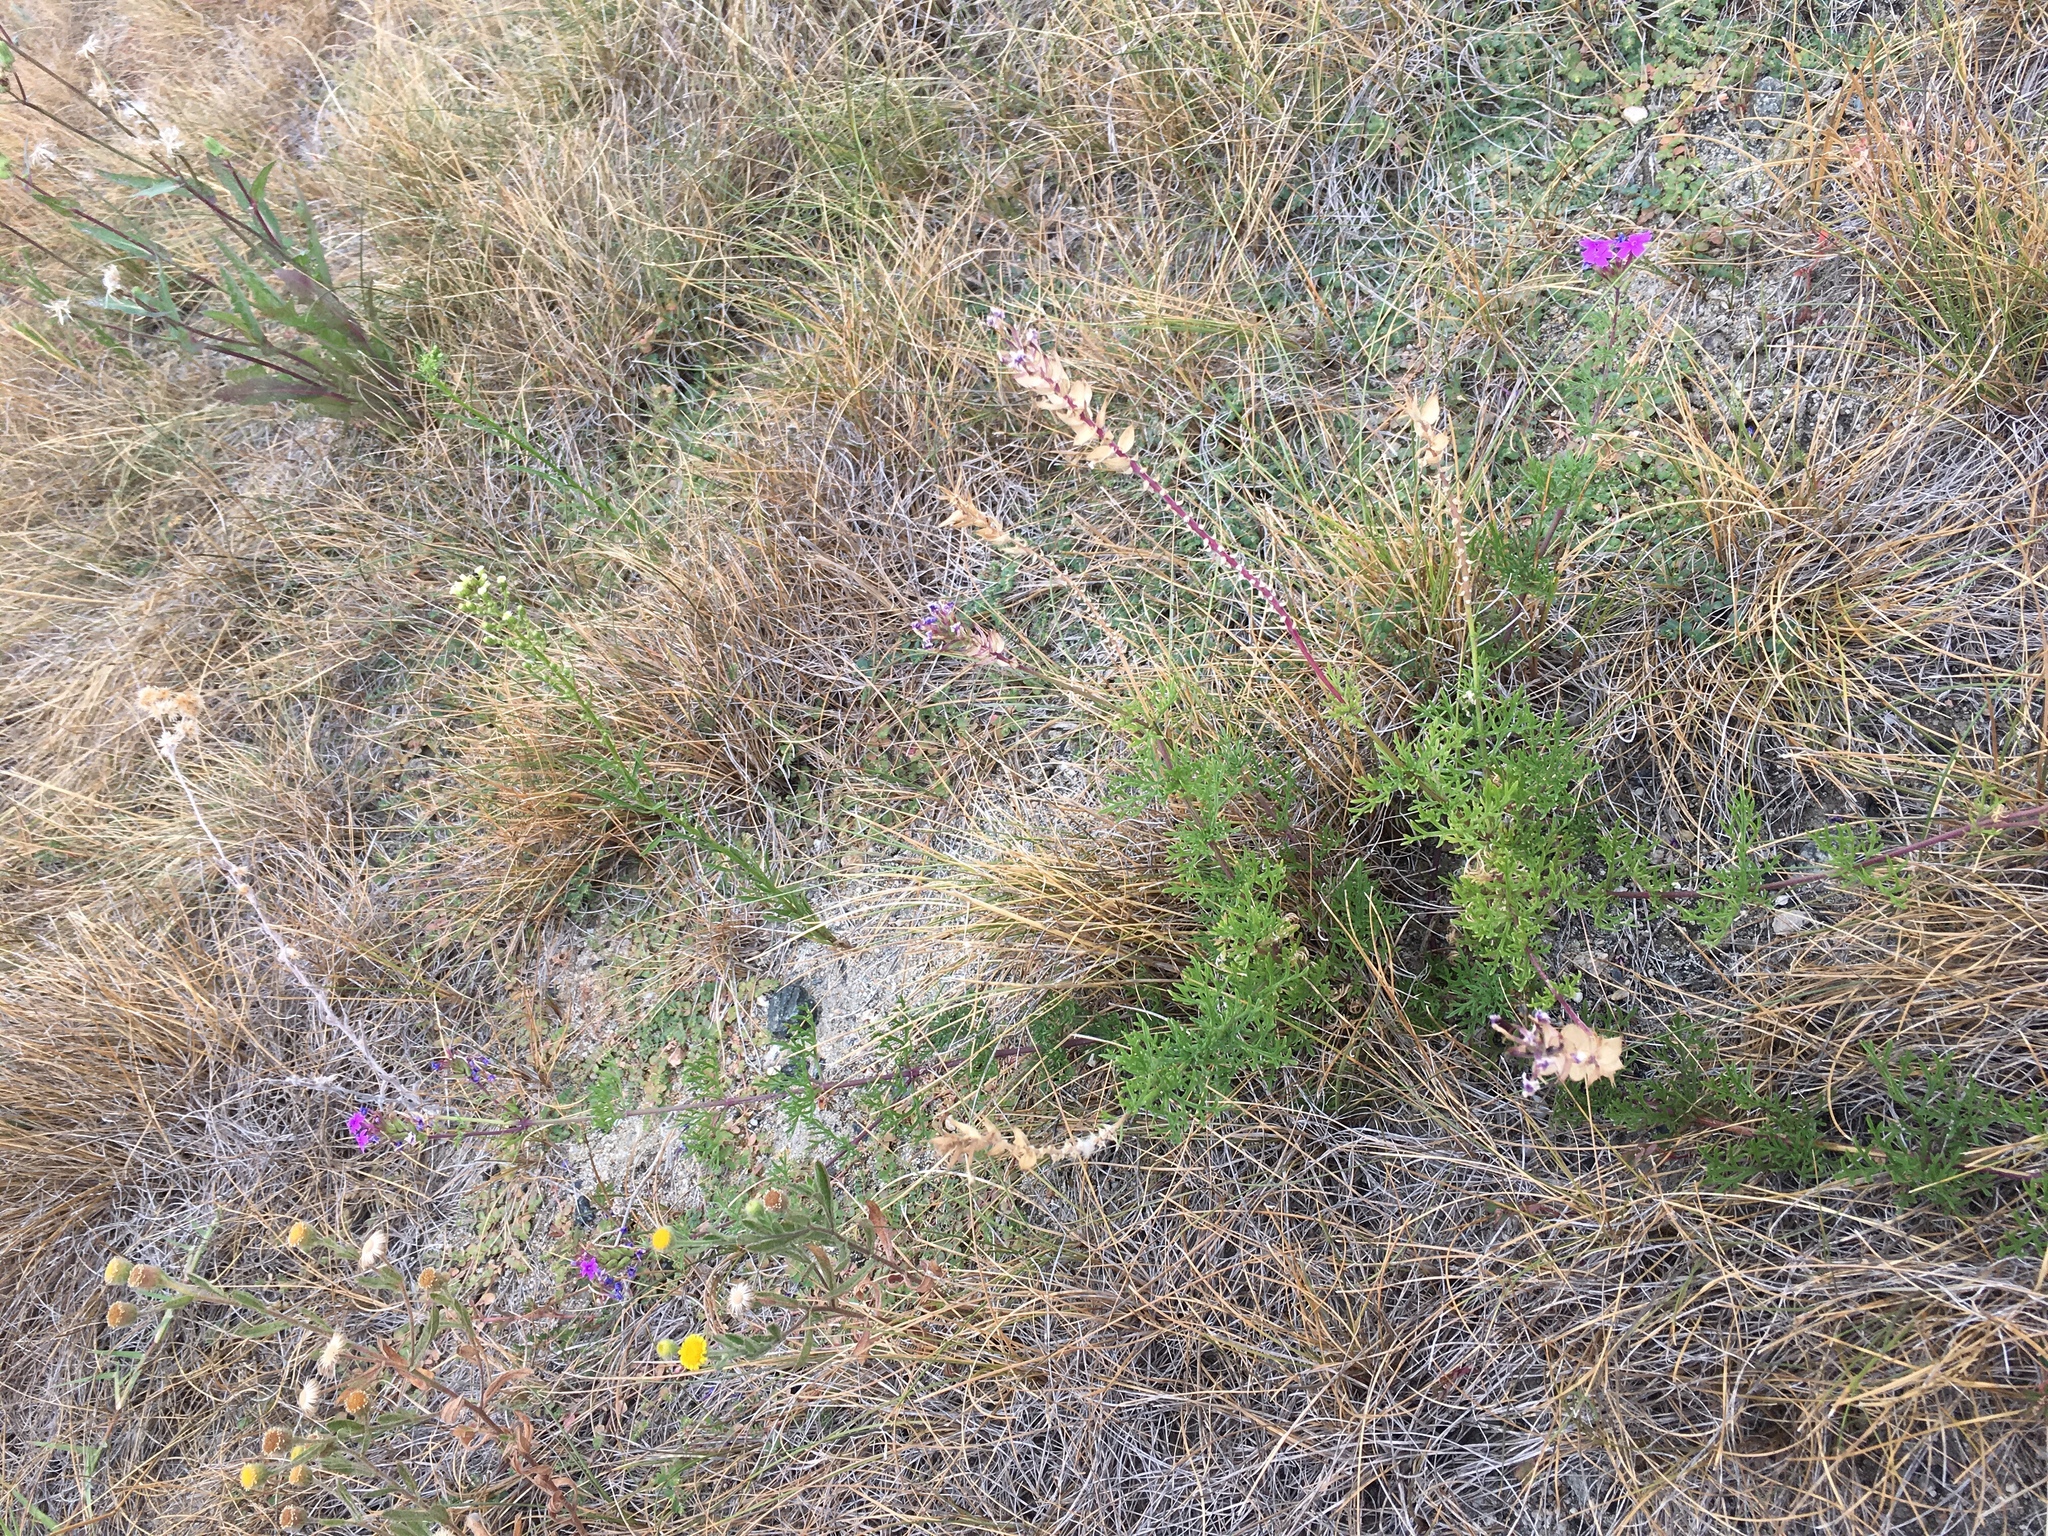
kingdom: Plantae
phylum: Tracheophyta
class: Magnoliopsida
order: Lamiales
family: Verbenaceae
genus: Verbena
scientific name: Verbena
